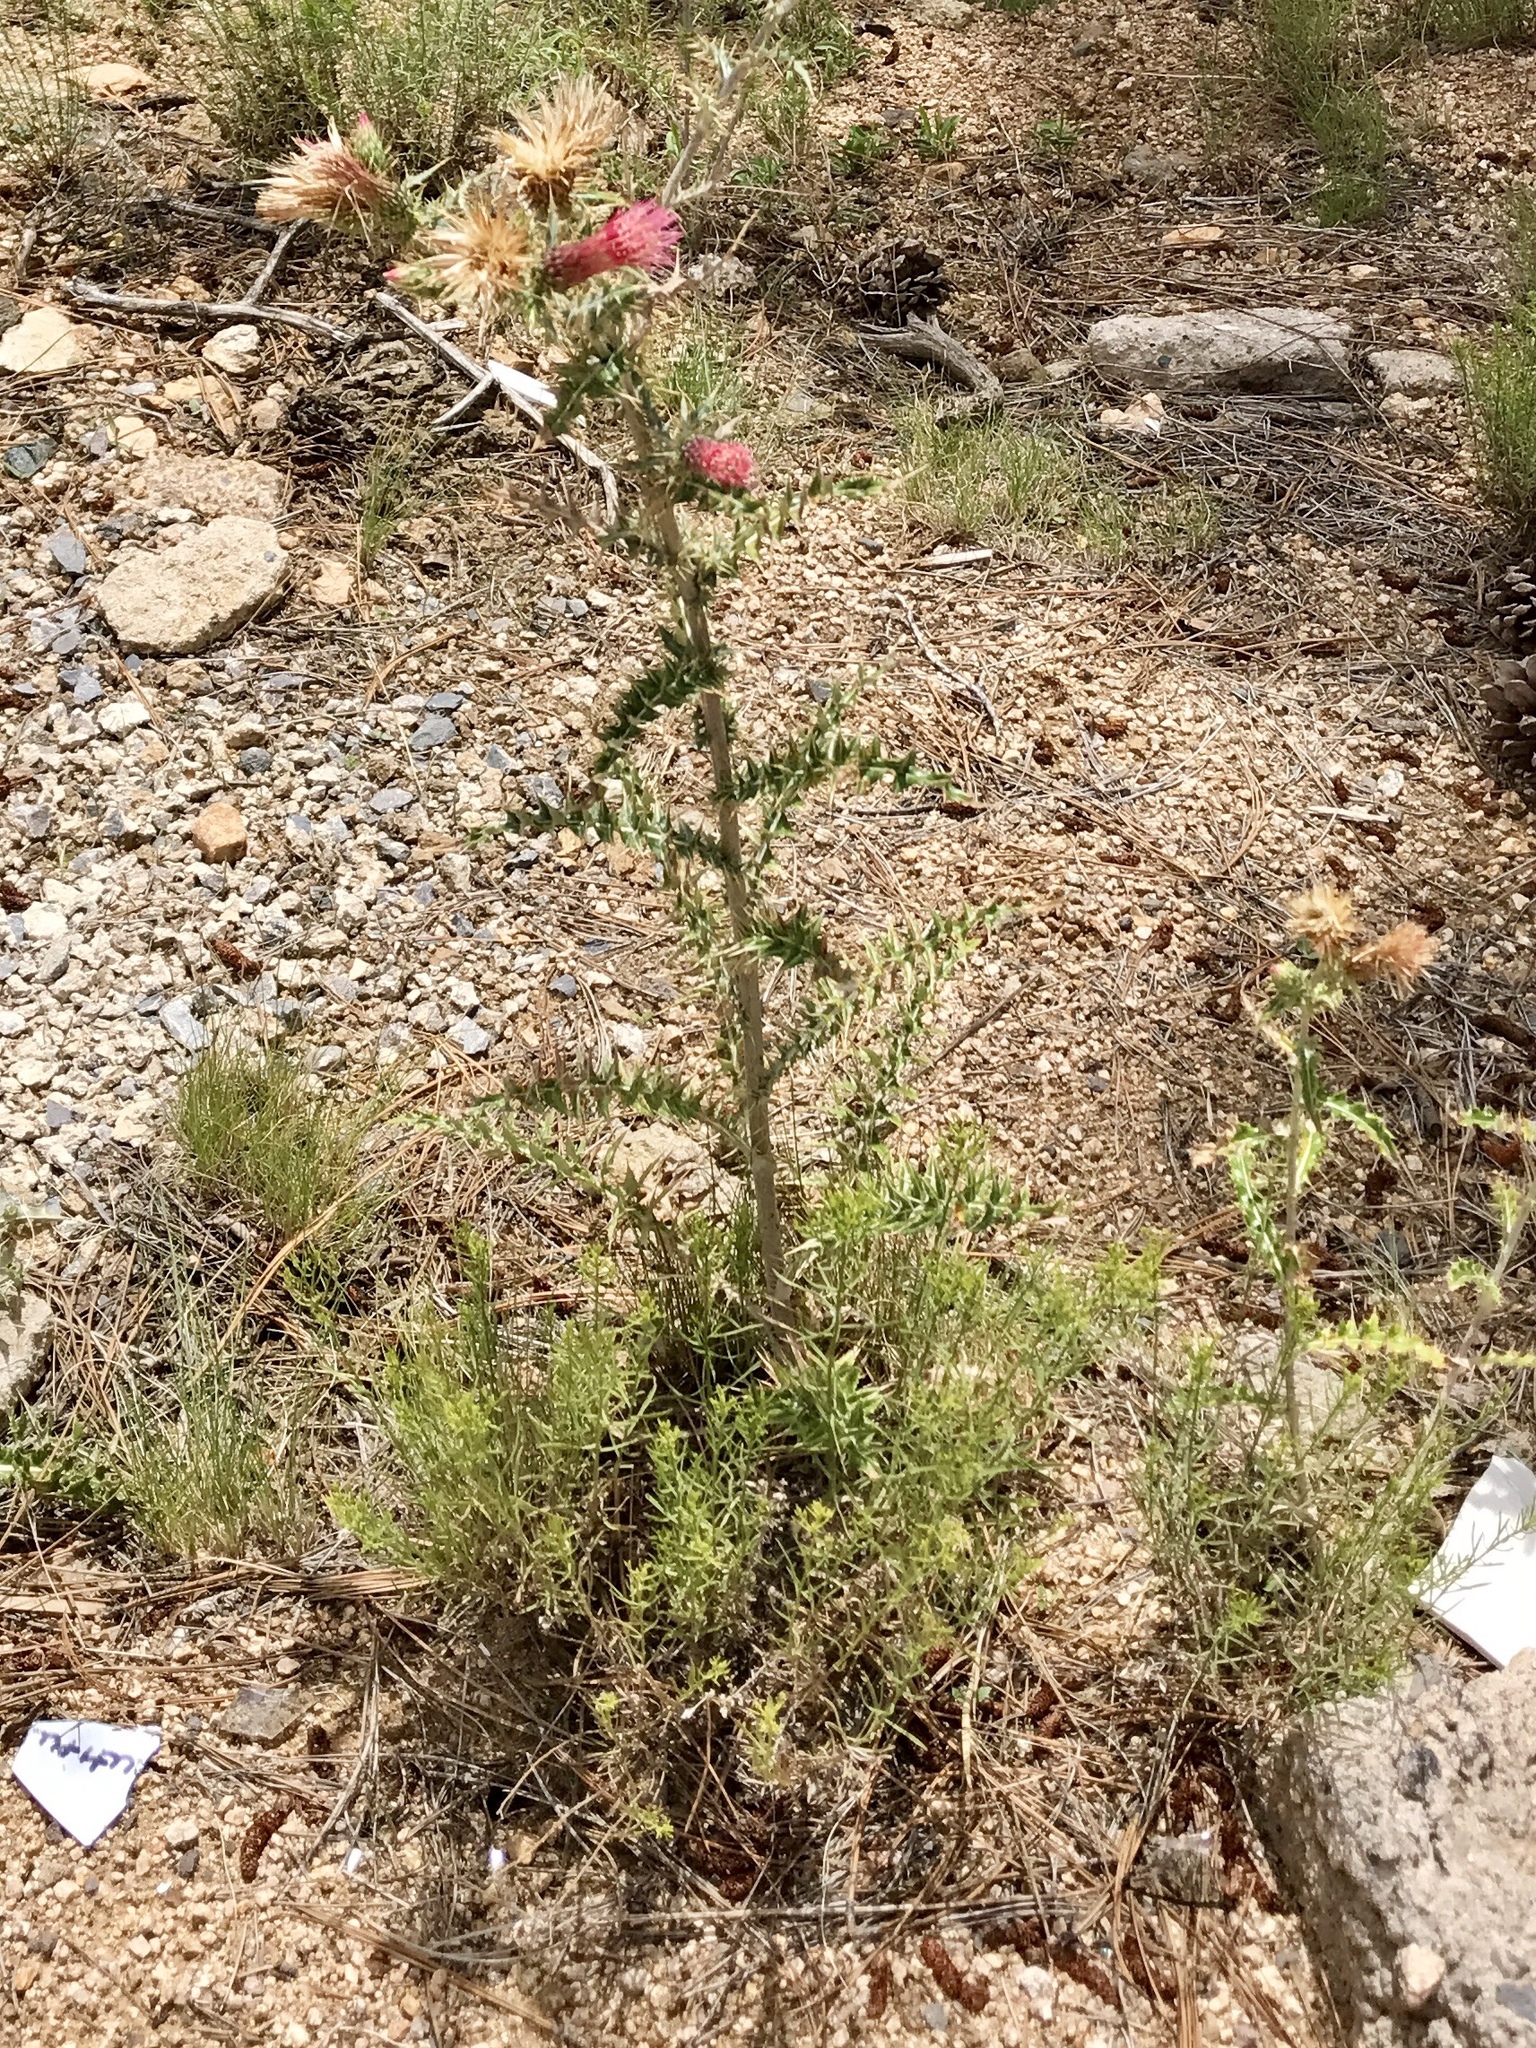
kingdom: Plantae
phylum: Tracheophyta
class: Magnoliopsida
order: Asterales
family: Asteraceae
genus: Cirsium
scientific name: Cirsium arizonicum
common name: Arizona thistle
